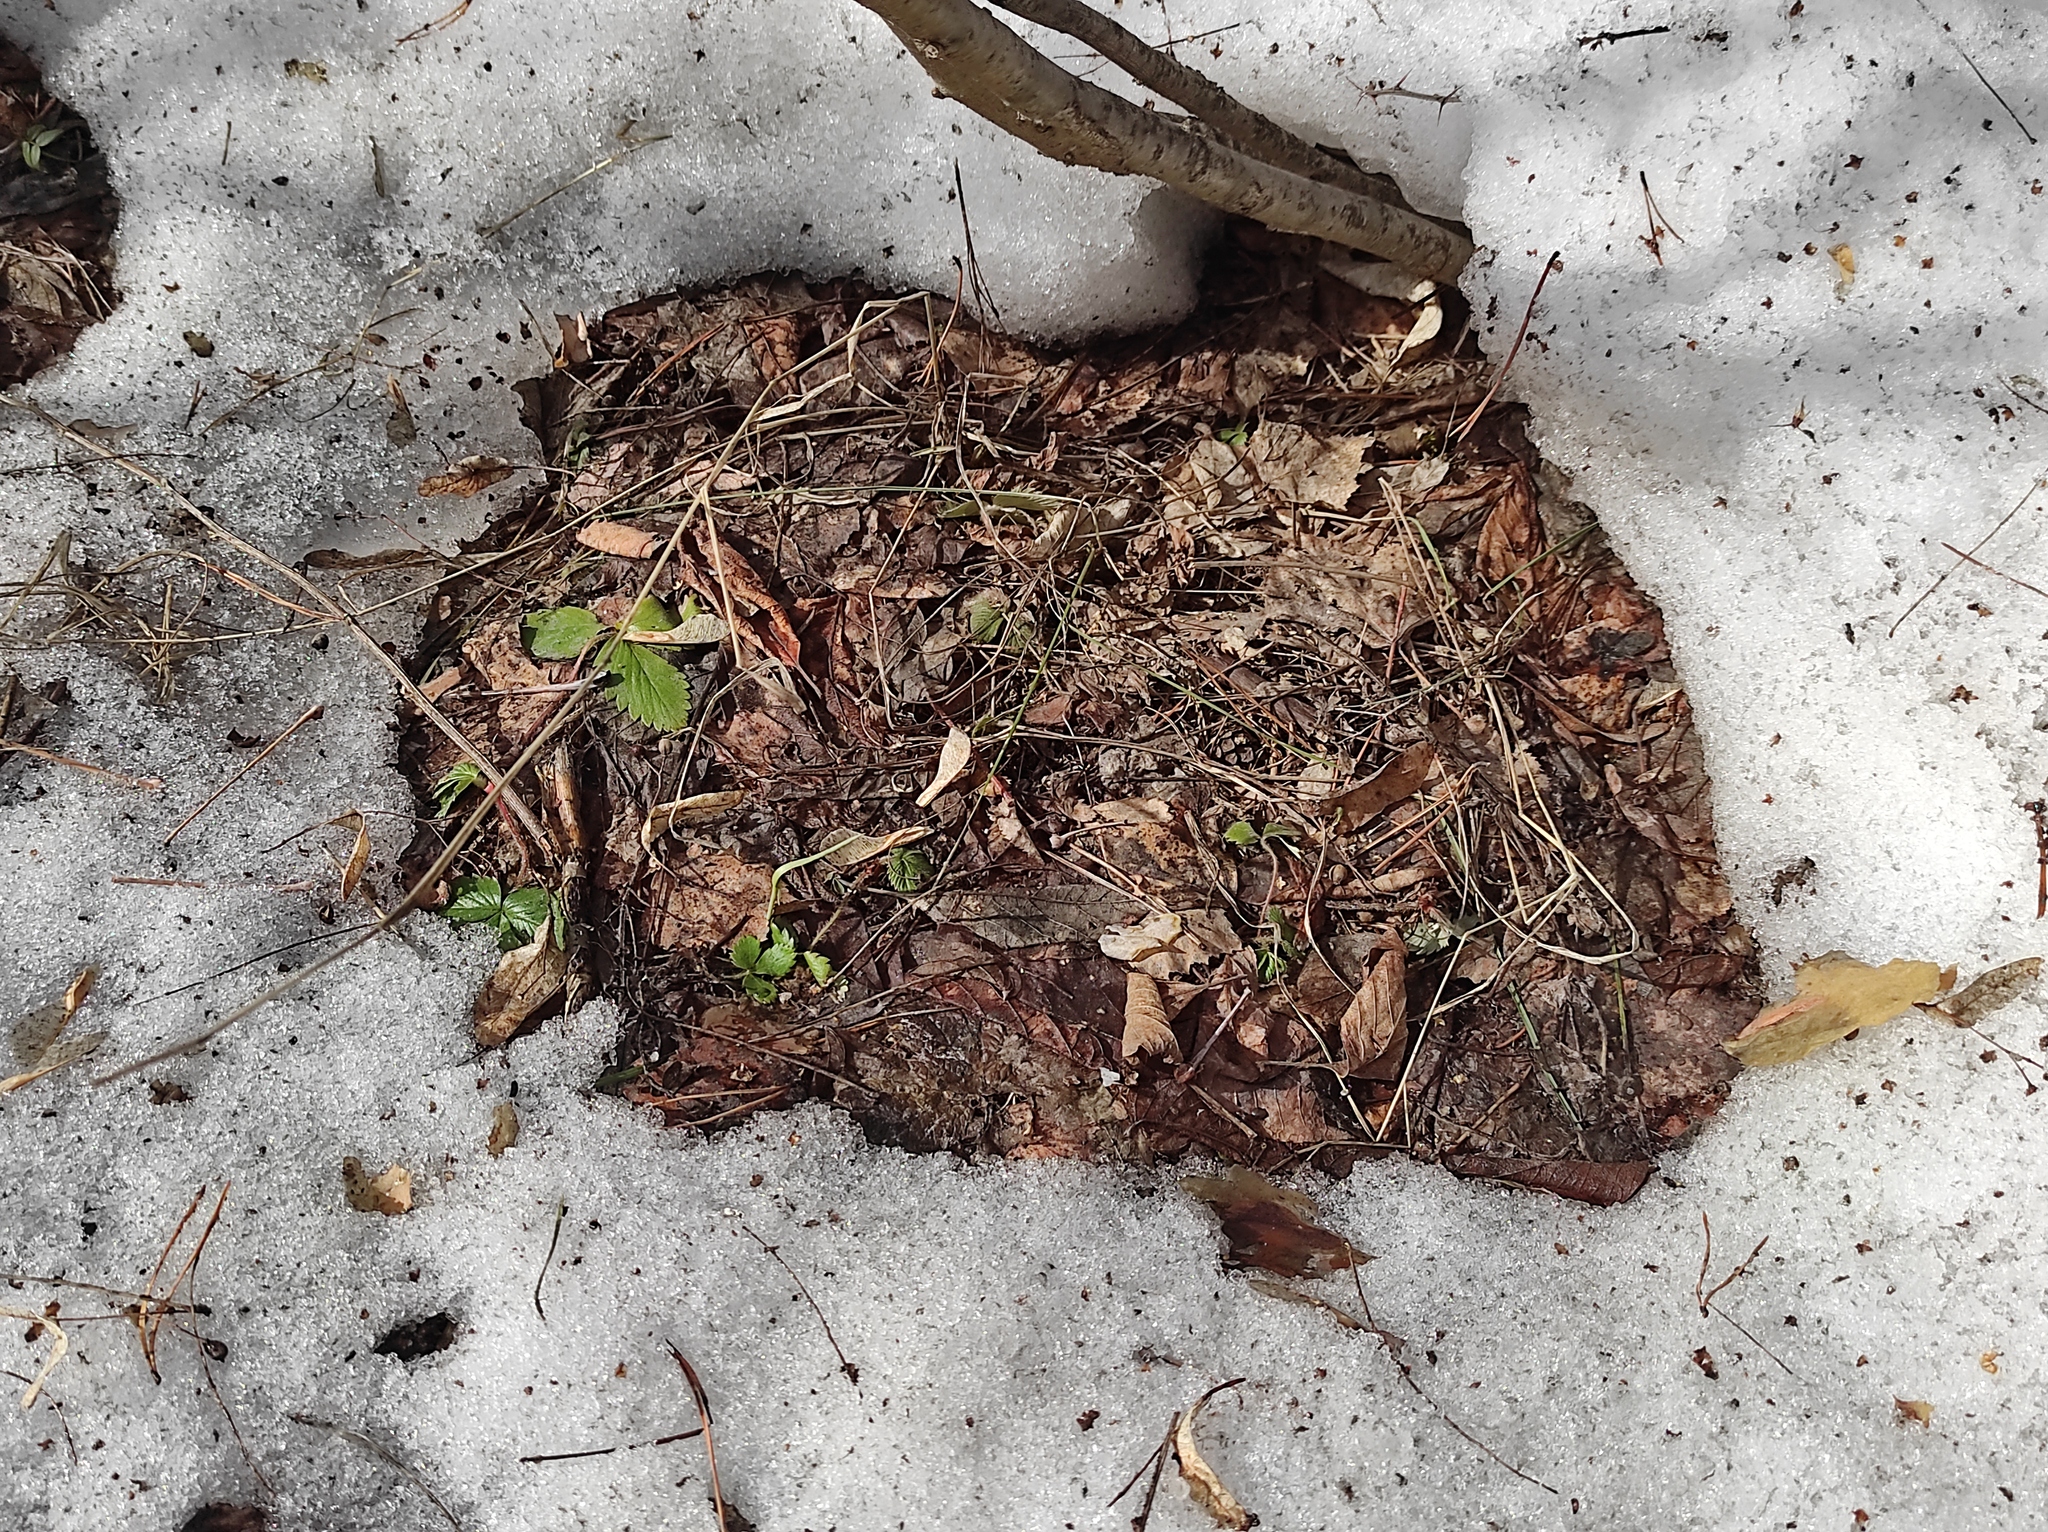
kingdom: Plantae
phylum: Tracheophyta
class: Magnoliopsida
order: Rosales
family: Rosaceae
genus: Fragaria
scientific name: Fragaria vesca
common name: Wild strawberry
